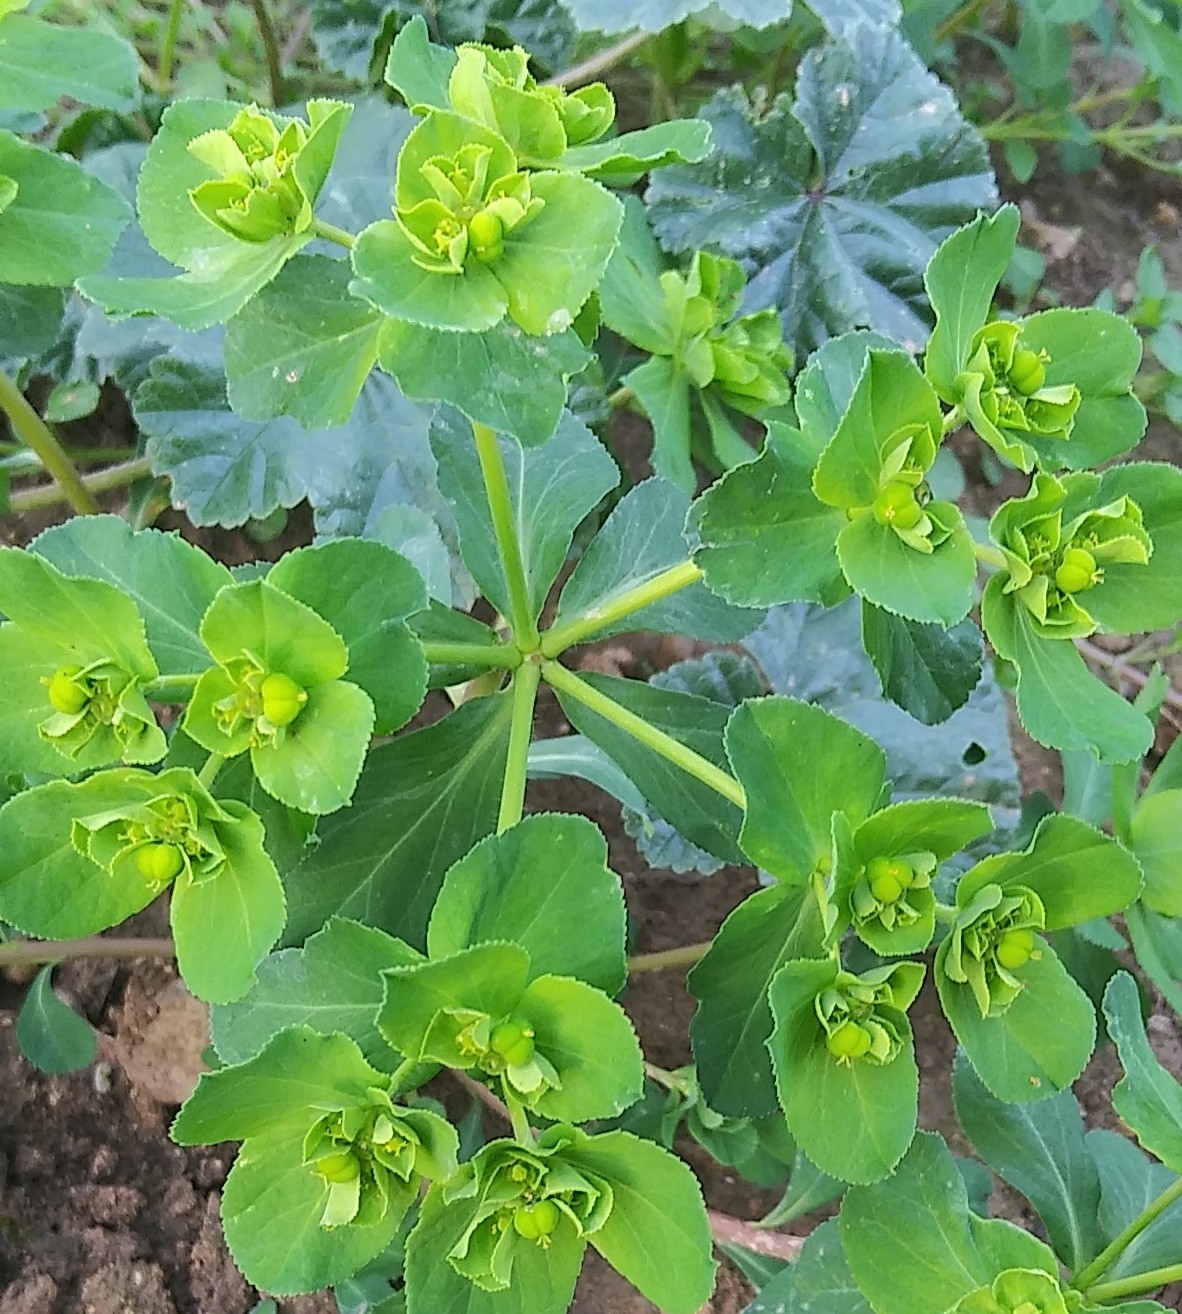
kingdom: Plantae
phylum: Tracheophyta
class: Magnoliopsida
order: Malpighiales
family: Euphorbiaceae
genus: Euphorbia
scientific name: Euphorbia helioscopia
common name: Sun spurge
